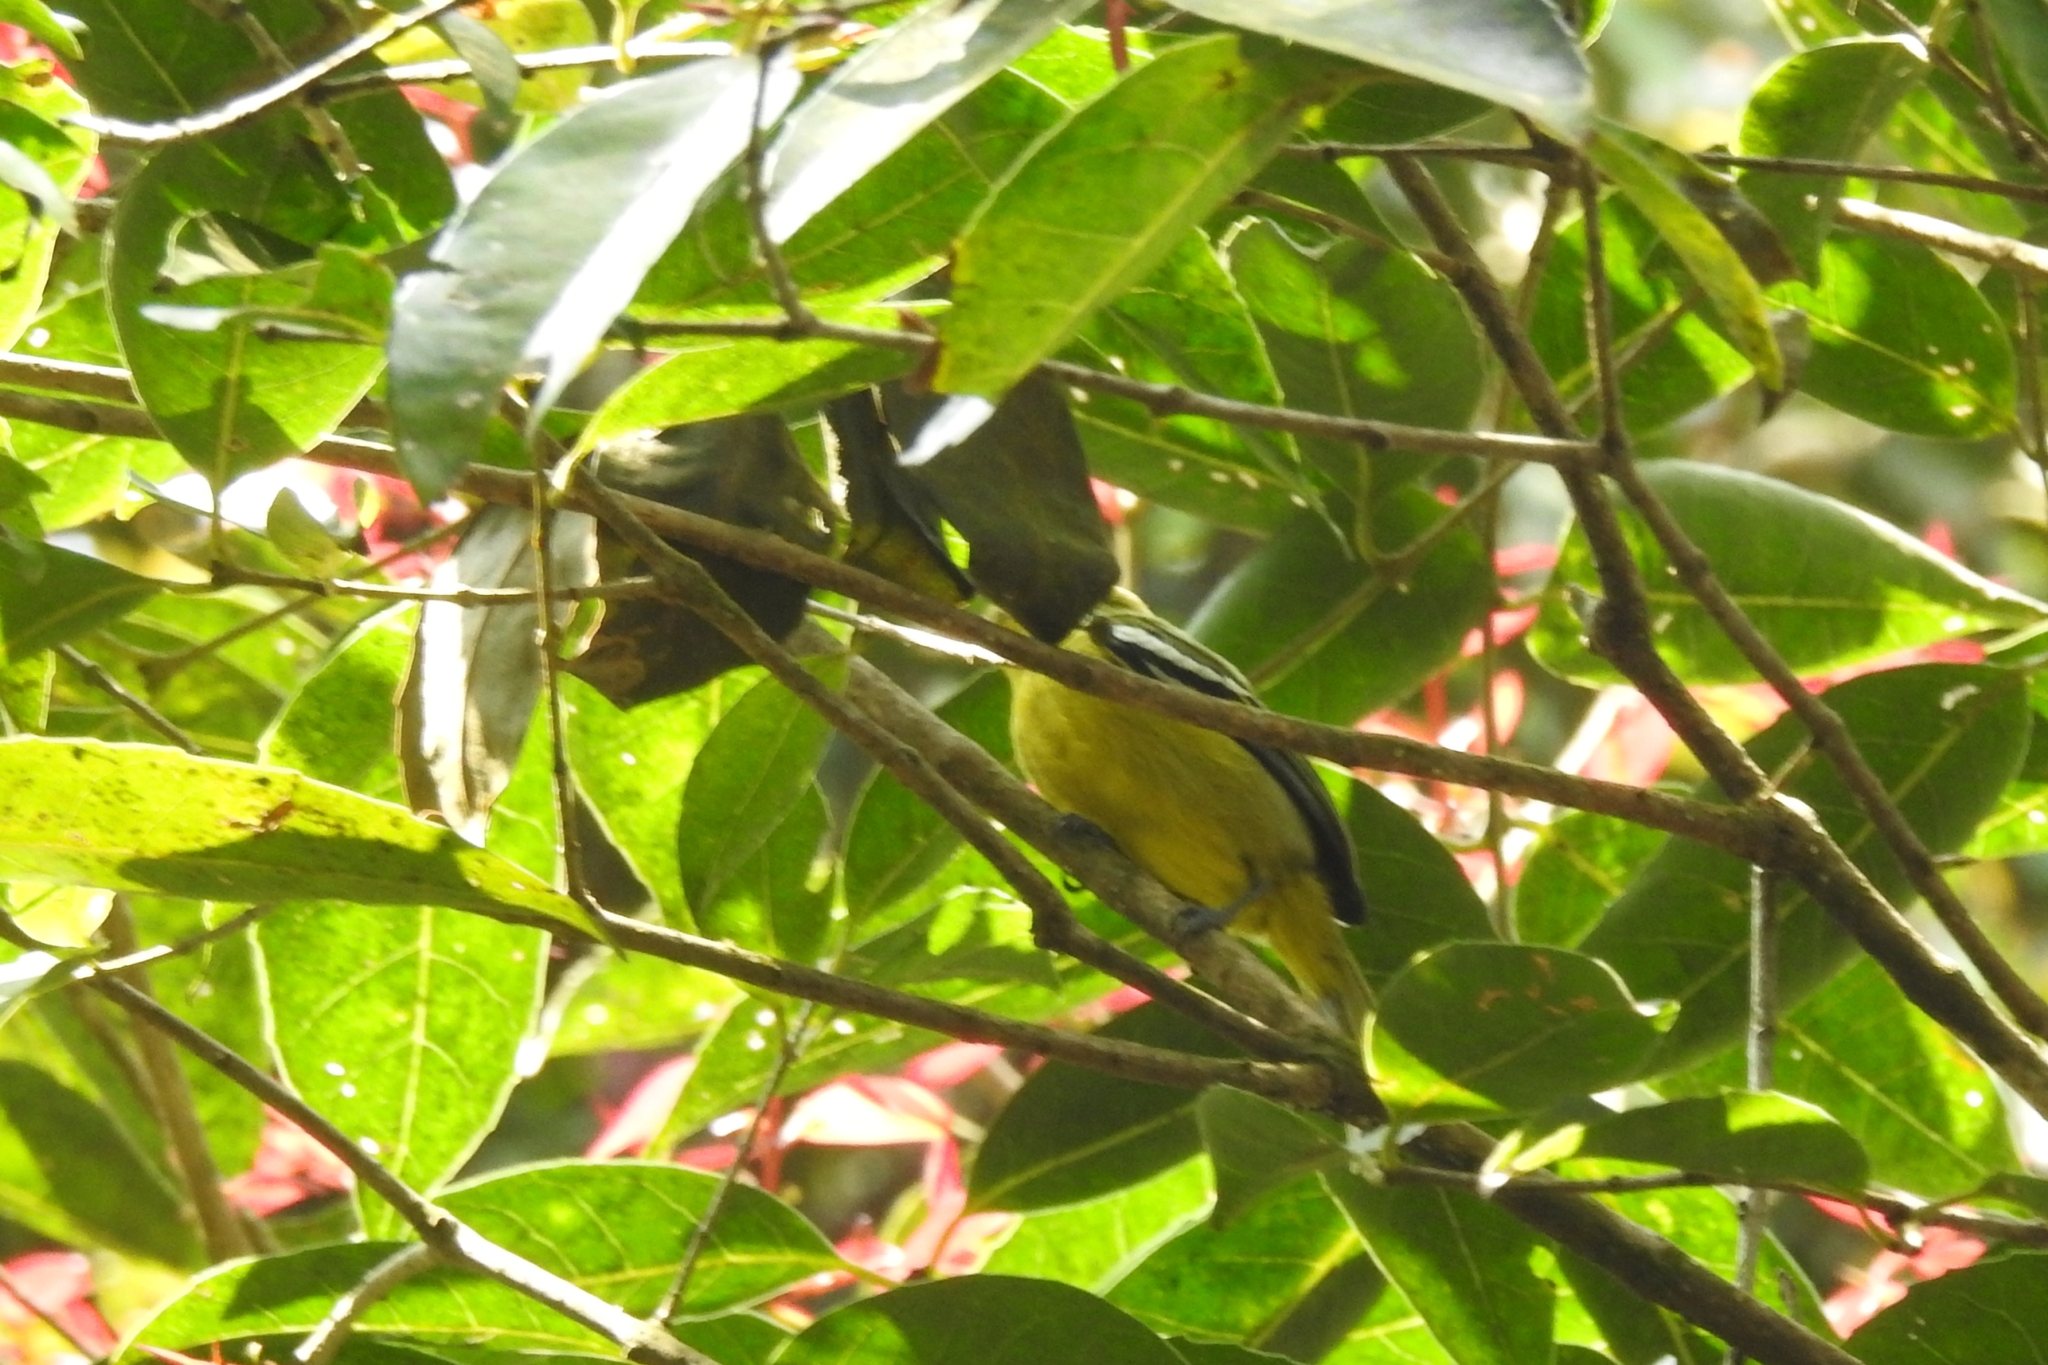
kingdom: Animalia
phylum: Chordata
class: Aves
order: Passeriformes
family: Aegithinidae
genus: Aegithina
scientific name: Aegithina tiphia
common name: Common iora
